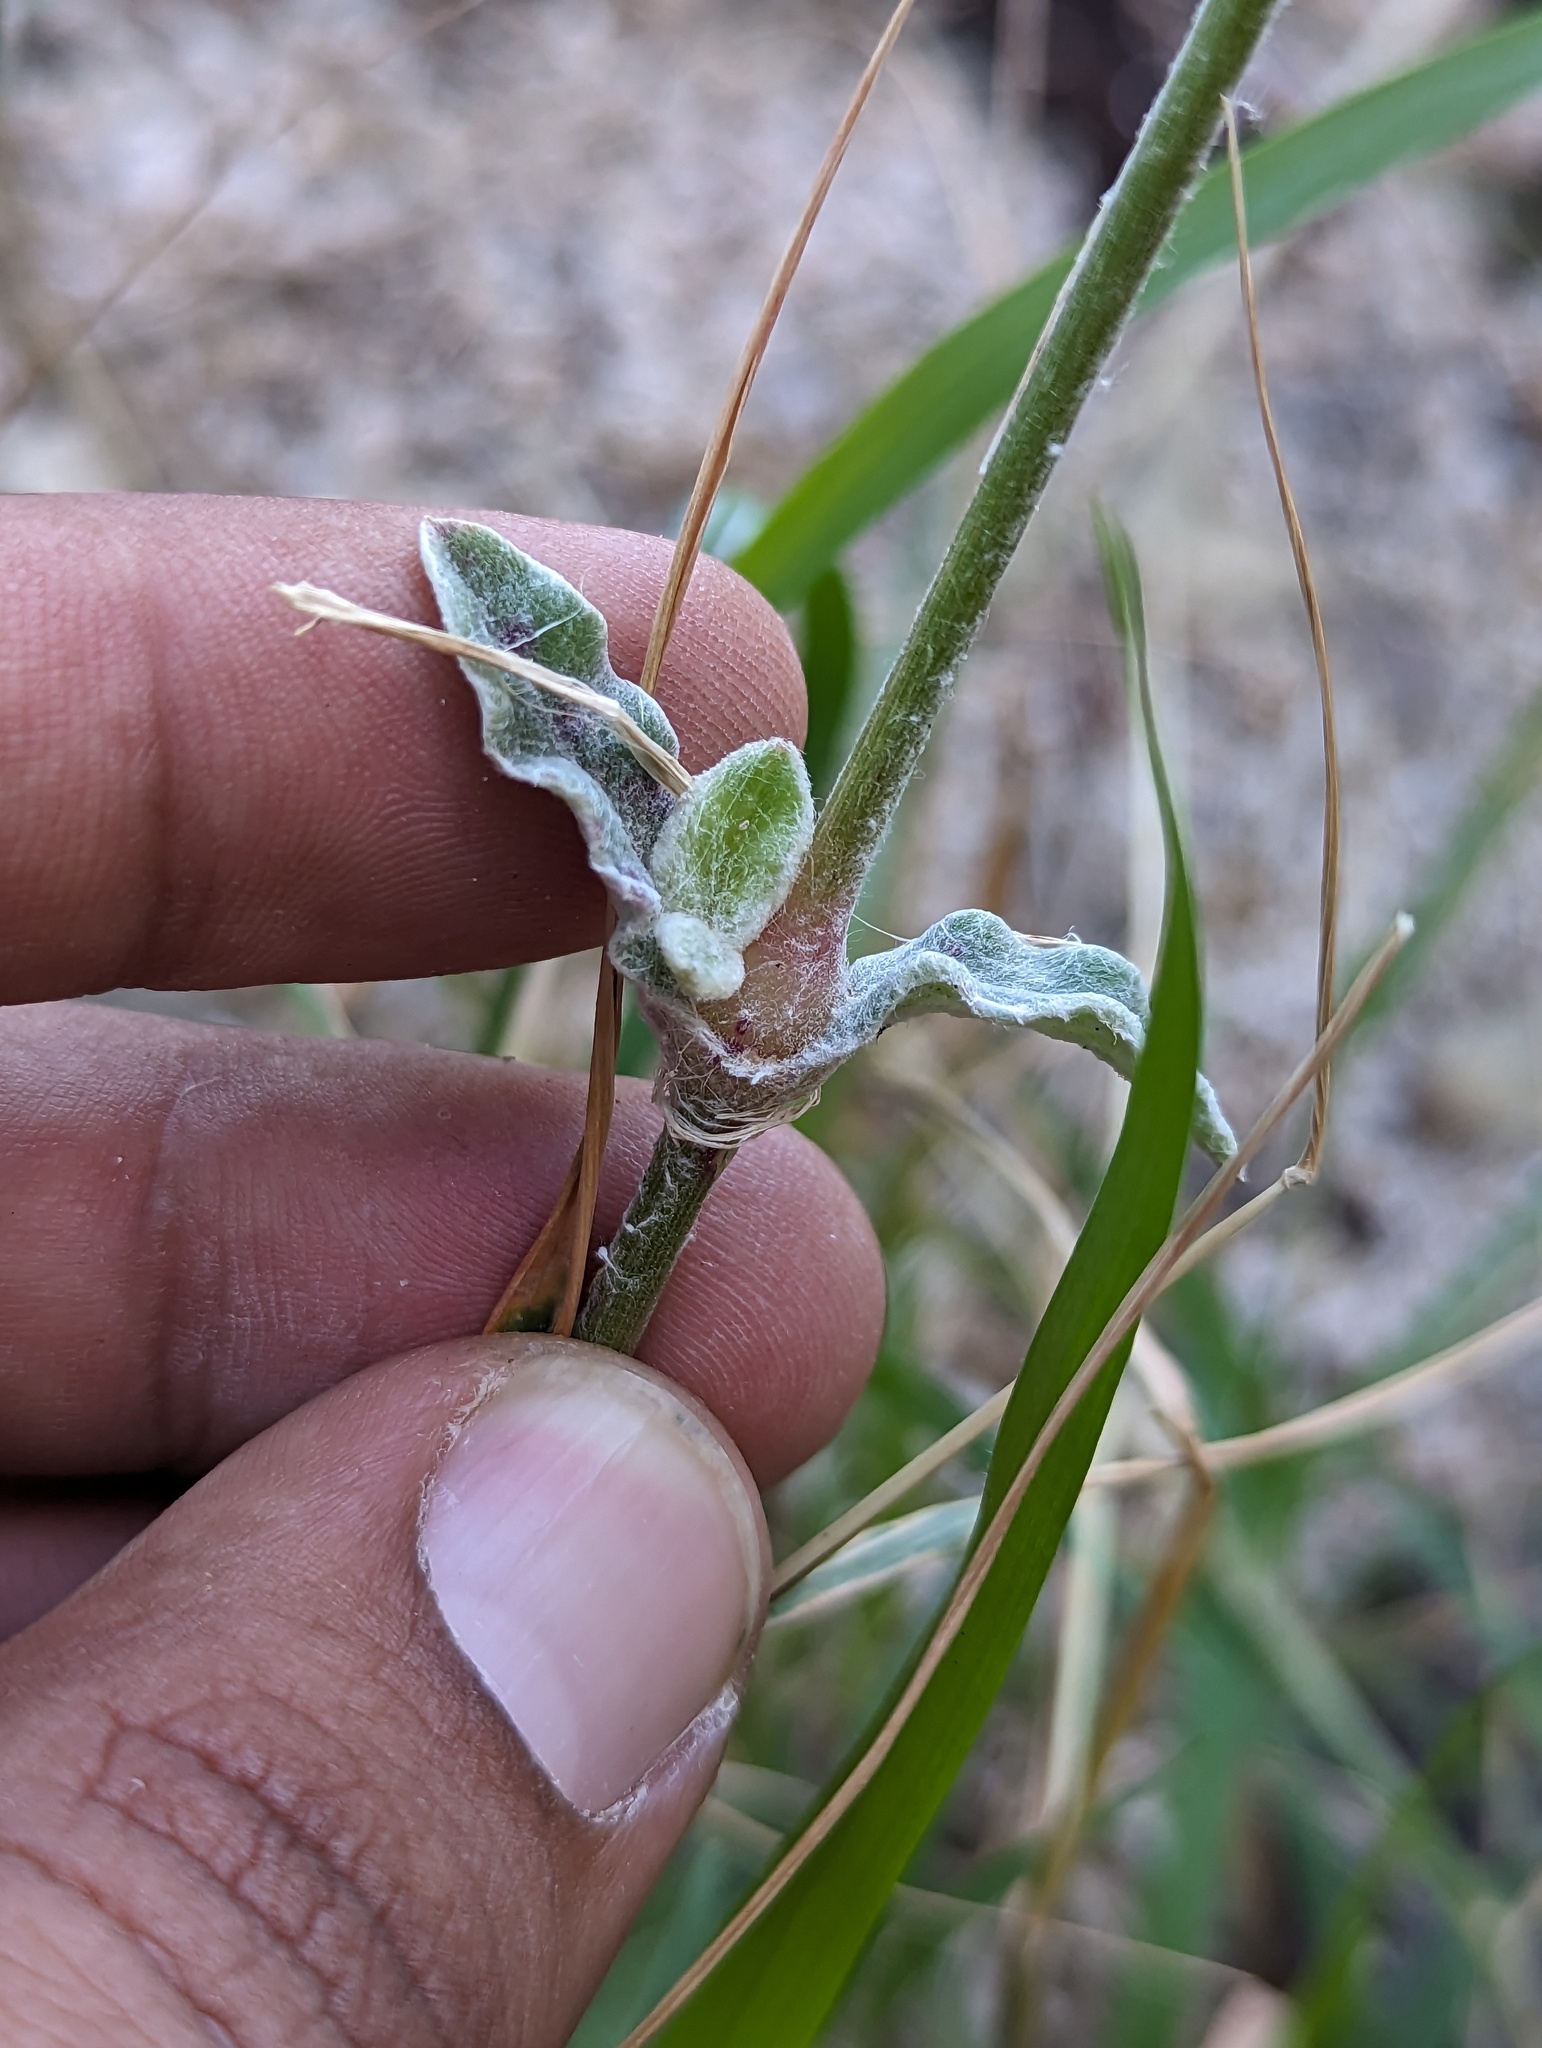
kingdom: Plantae
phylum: Tracheophyta
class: Magnoliopsida
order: Caryophyllales
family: Amaranthaceae
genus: Froelichia
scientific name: Froelichia xantusii
